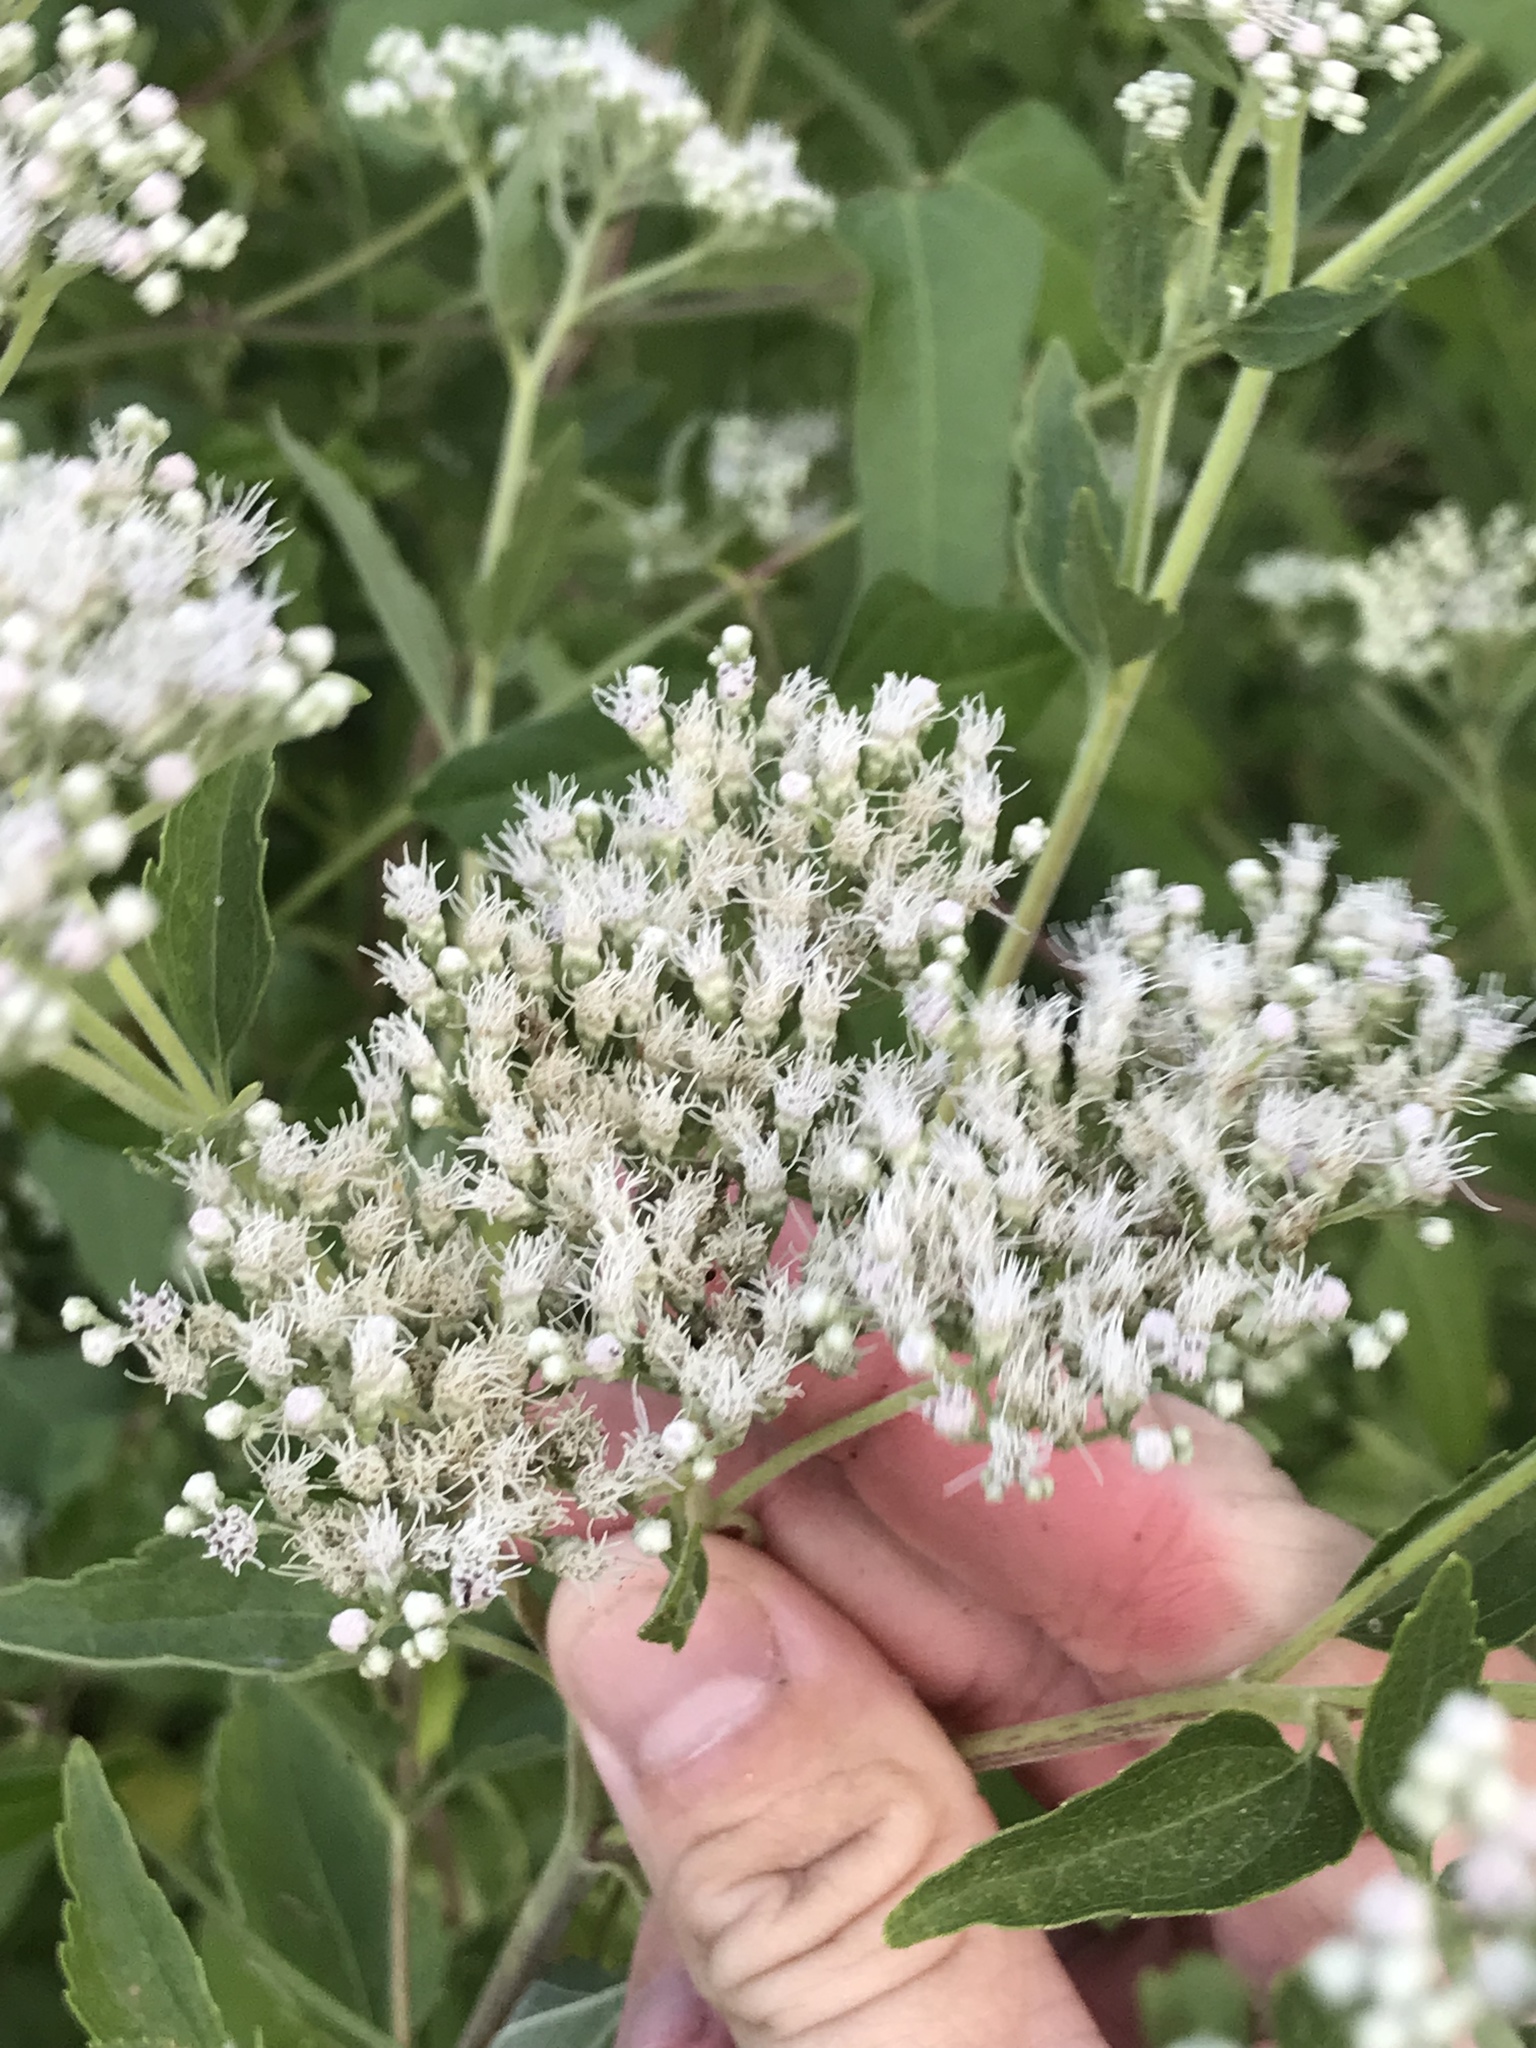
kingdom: Plantae
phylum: Tracheophyta
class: Magnoliopsida
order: Asterales
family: Asteraceae
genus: Eupatorium
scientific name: Eupatorium serotinum
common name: Late boneset
